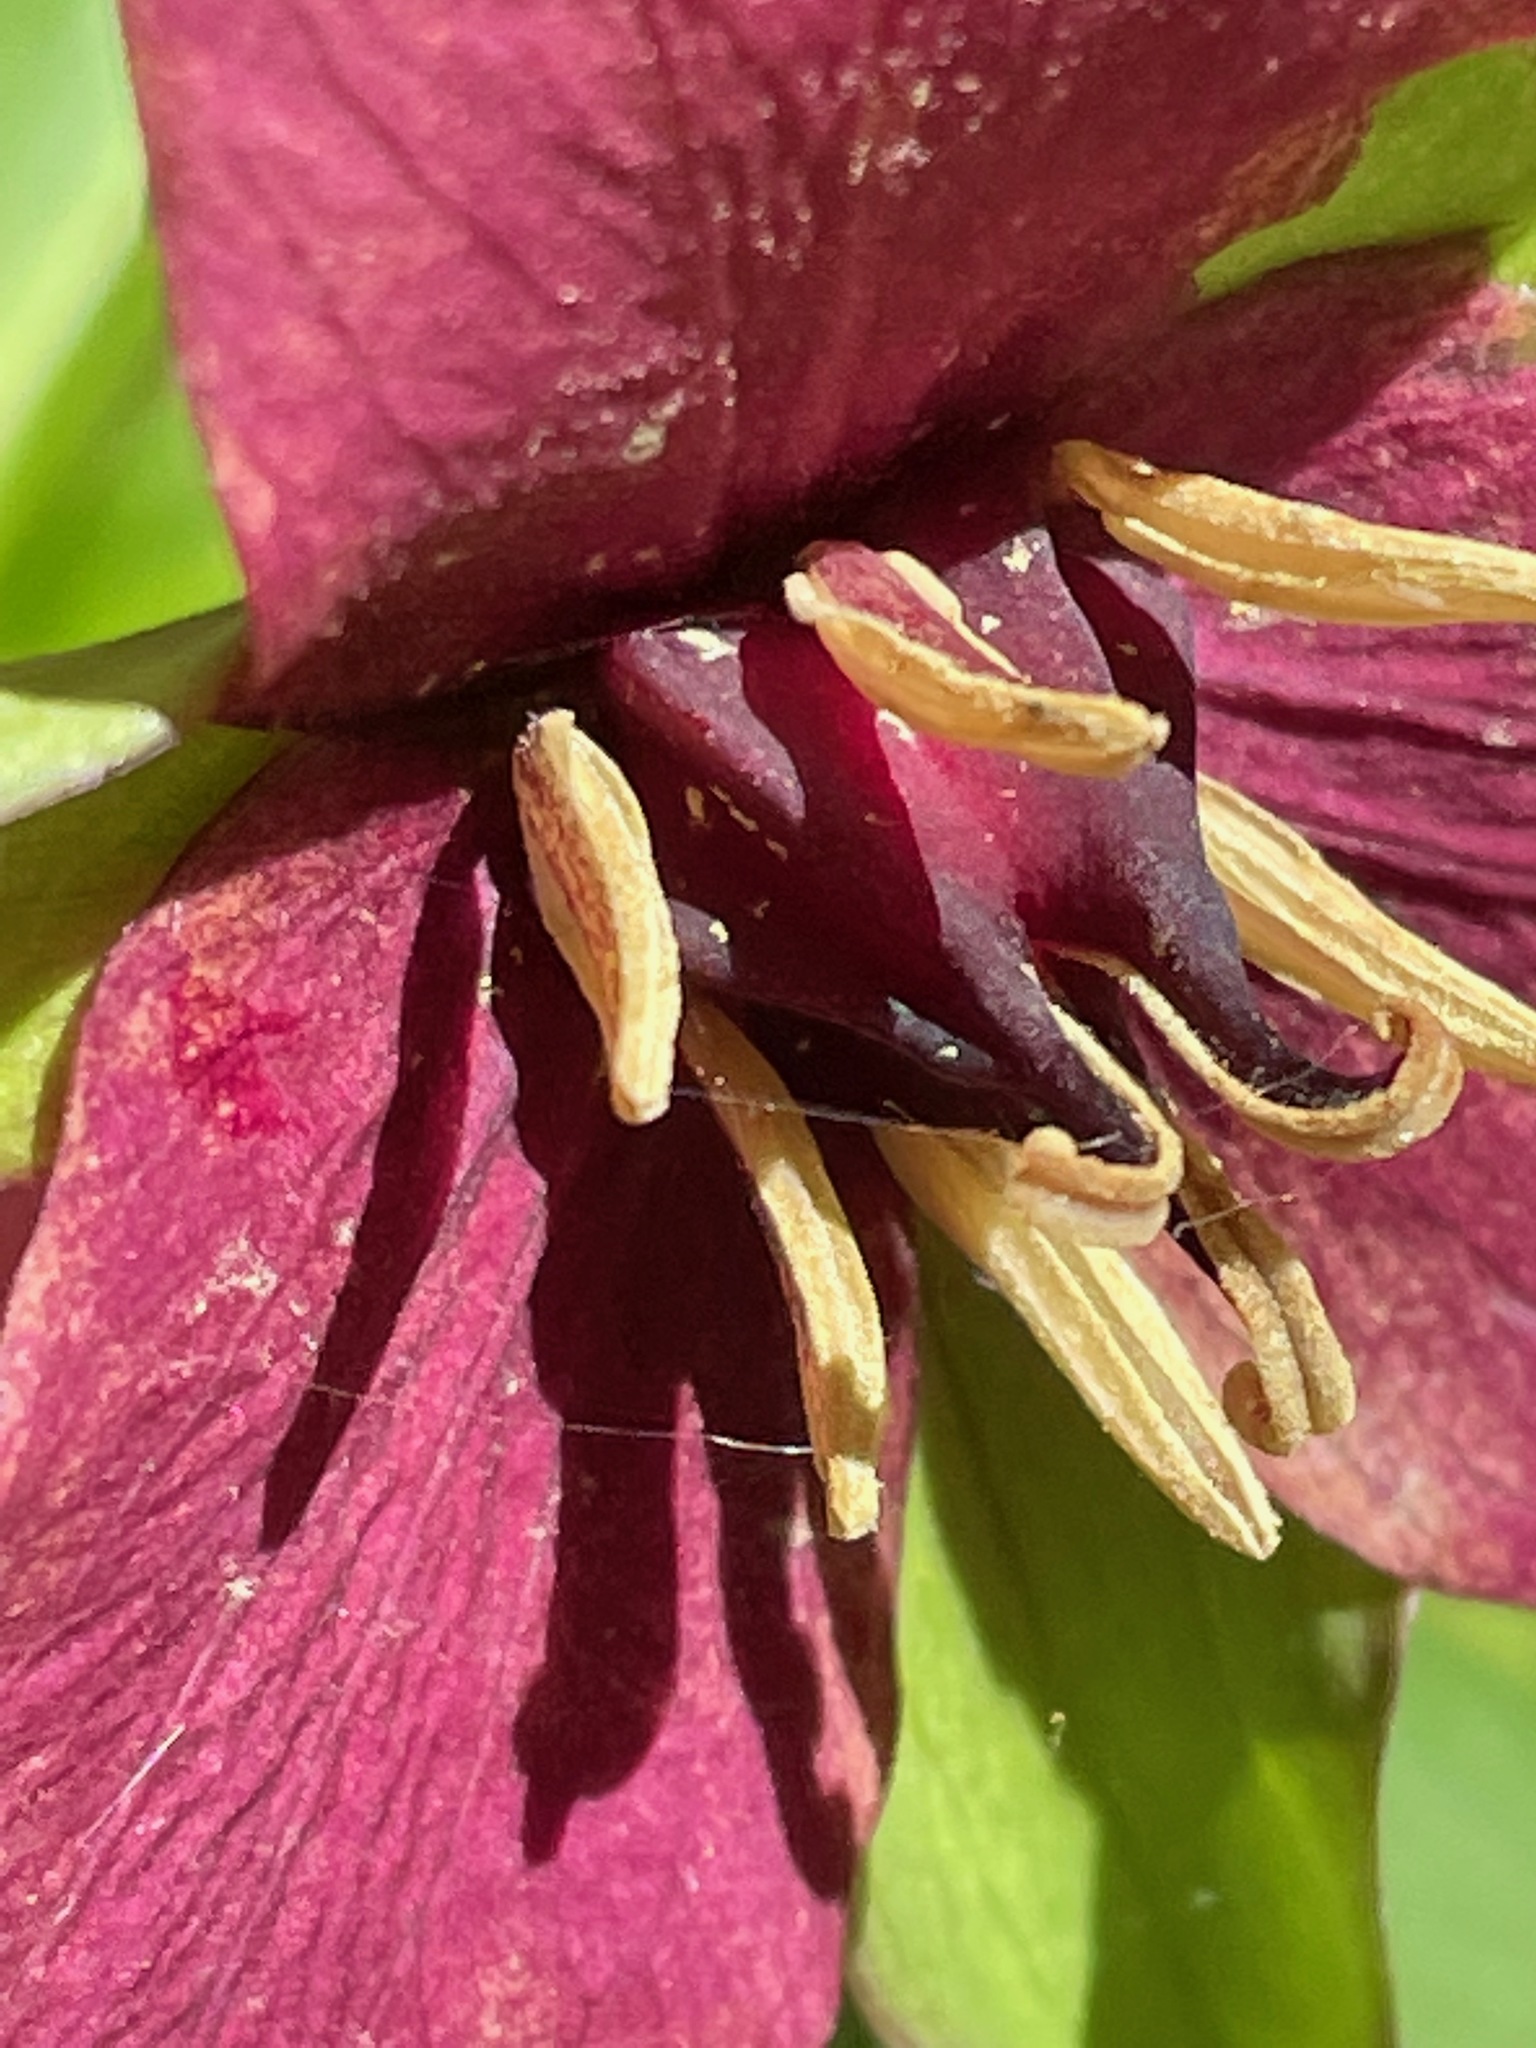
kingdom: Plantae
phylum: Tracheophyta
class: Liliopsida
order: Liliales
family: Melanthiaceae
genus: Trillium
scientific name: Trillium erectum
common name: Purple trillium
